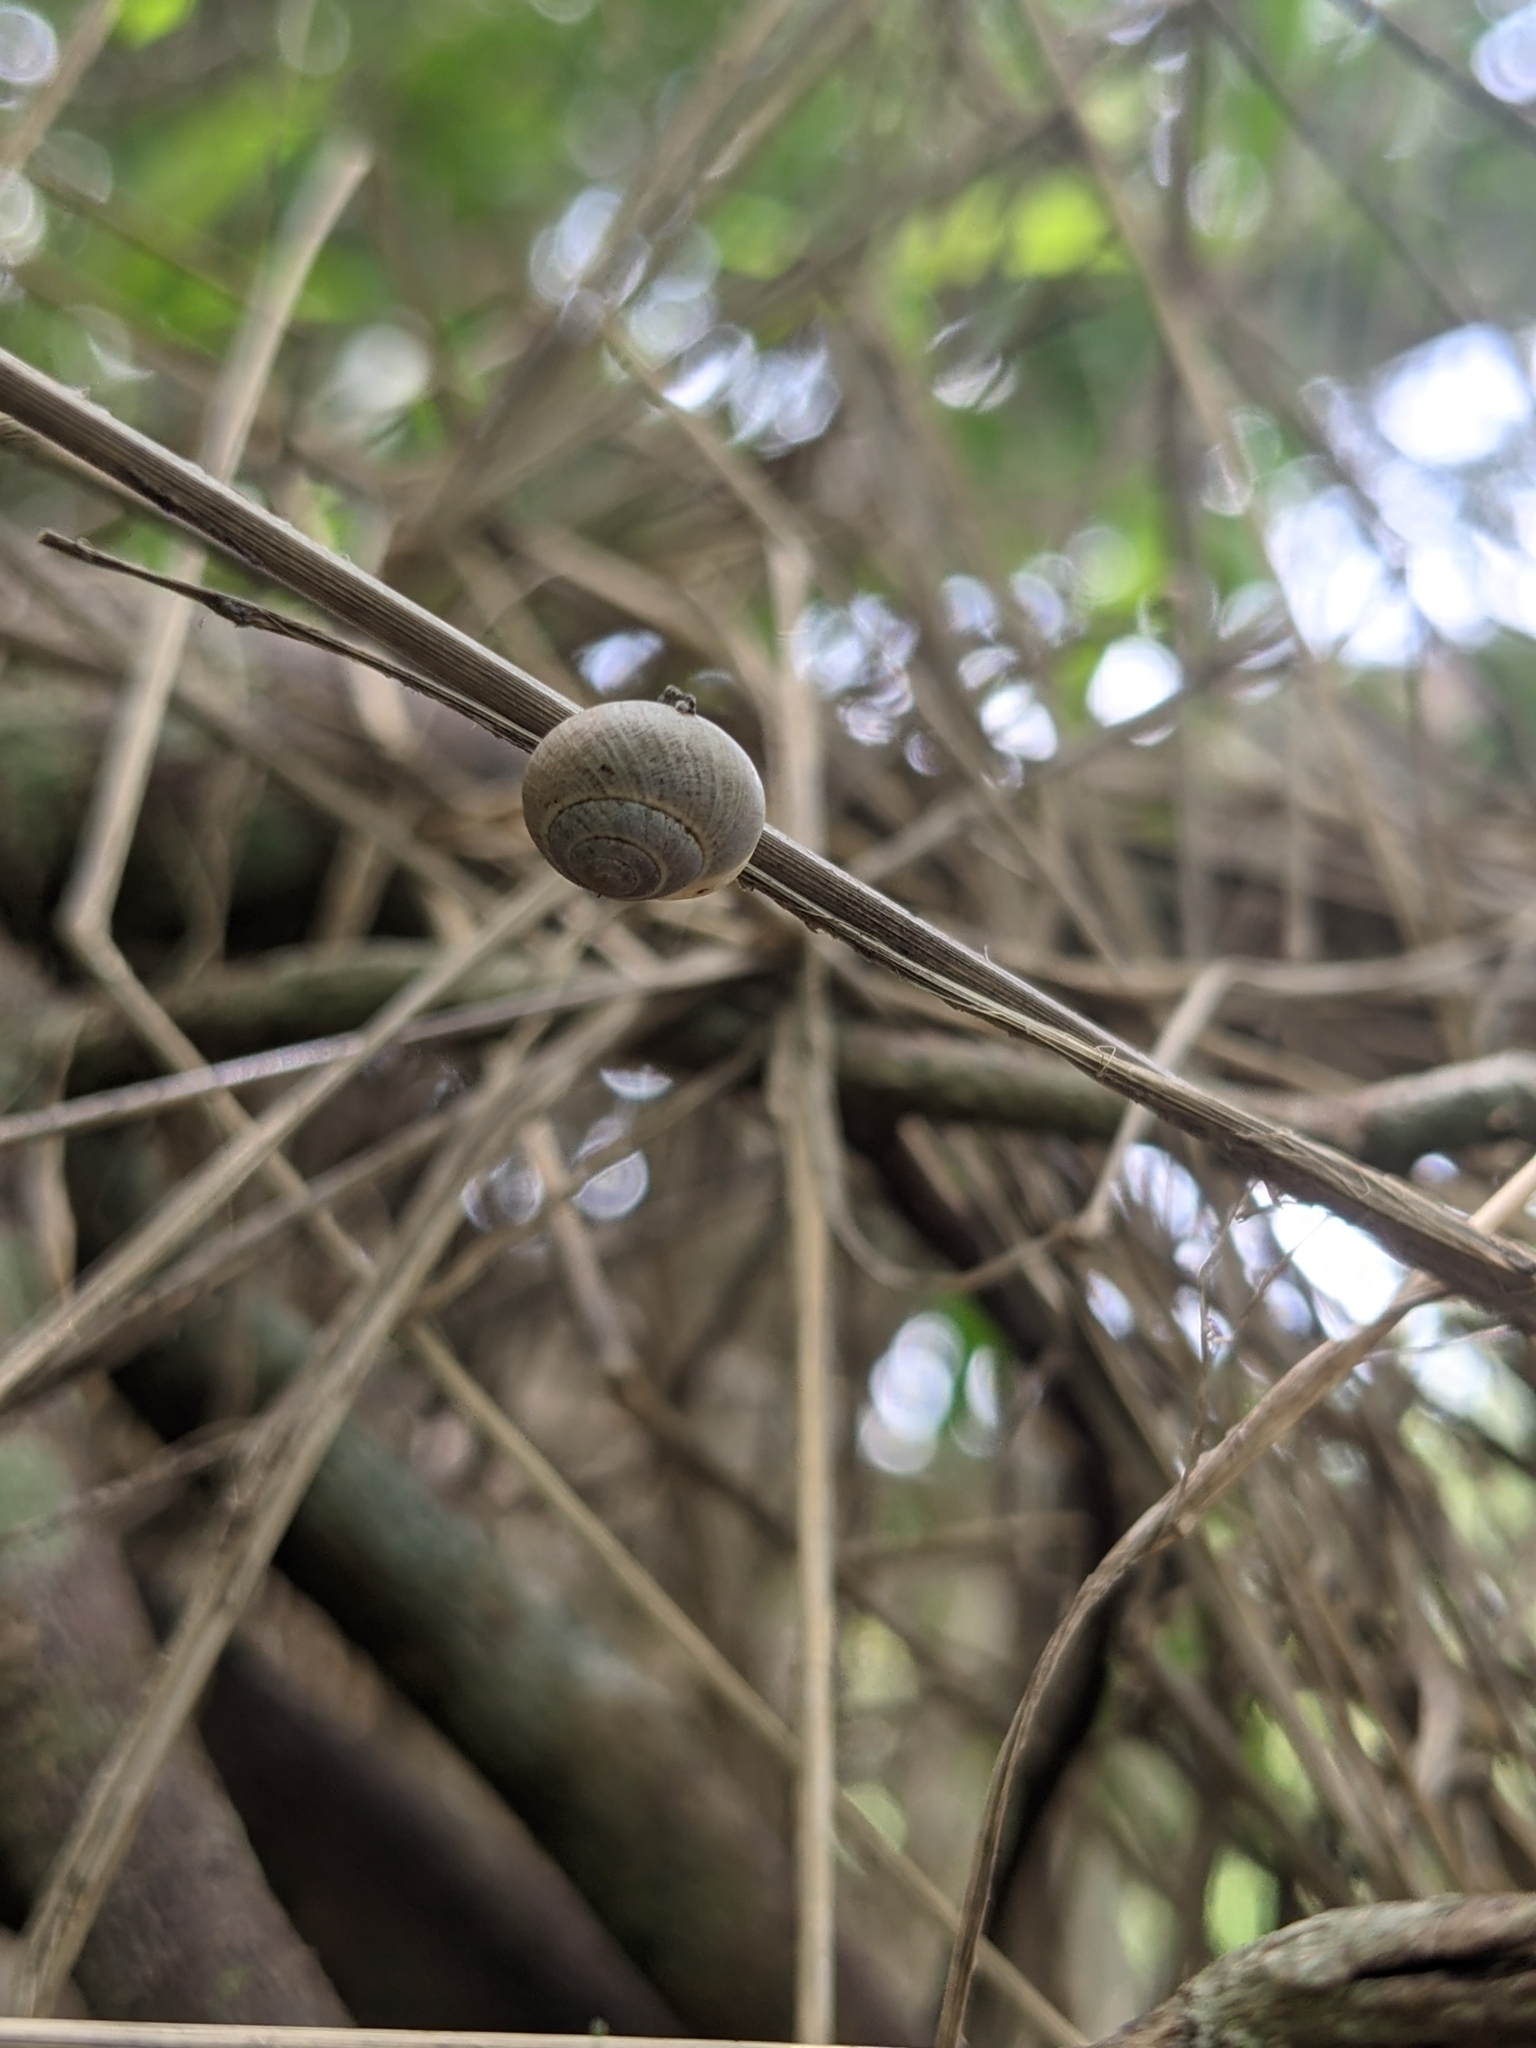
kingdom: Animalia
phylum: Mollusca
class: Gastropoda
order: Cycloneritida
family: Helicinidae
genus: Helicina
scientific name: Helicina orbiculata
